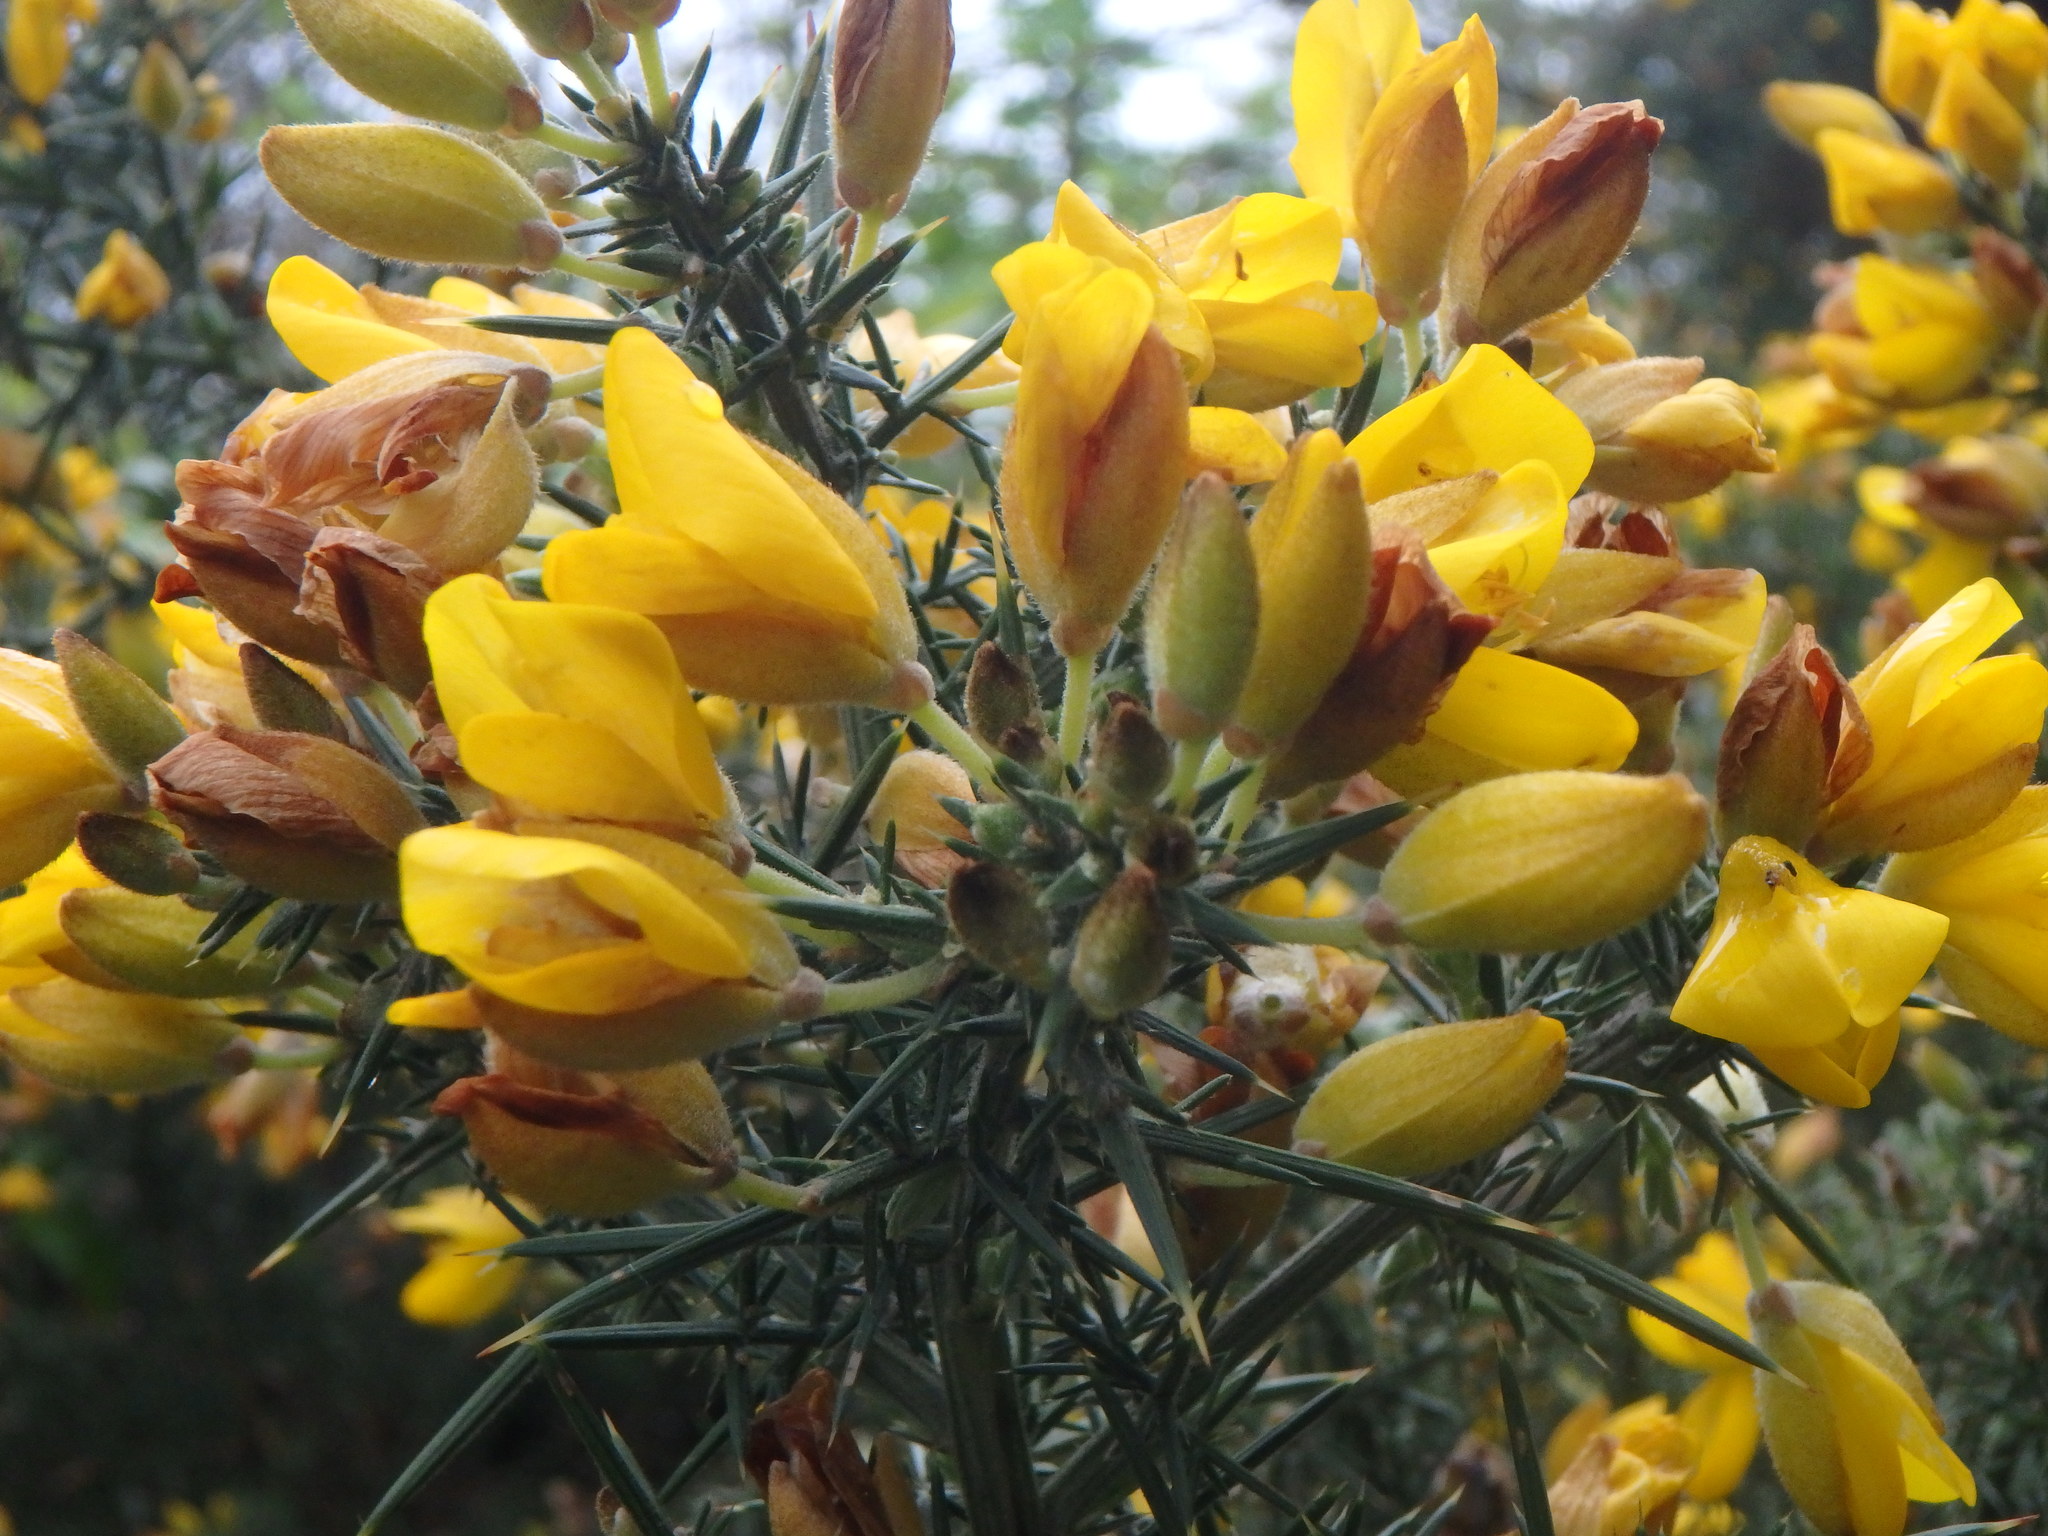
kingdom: Plantae
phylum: Tracheophyta
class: Magnoliopsida
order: Fabales
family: Fabaceae
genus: Ulex
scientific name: Ulex europaeus
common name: Common gorse
